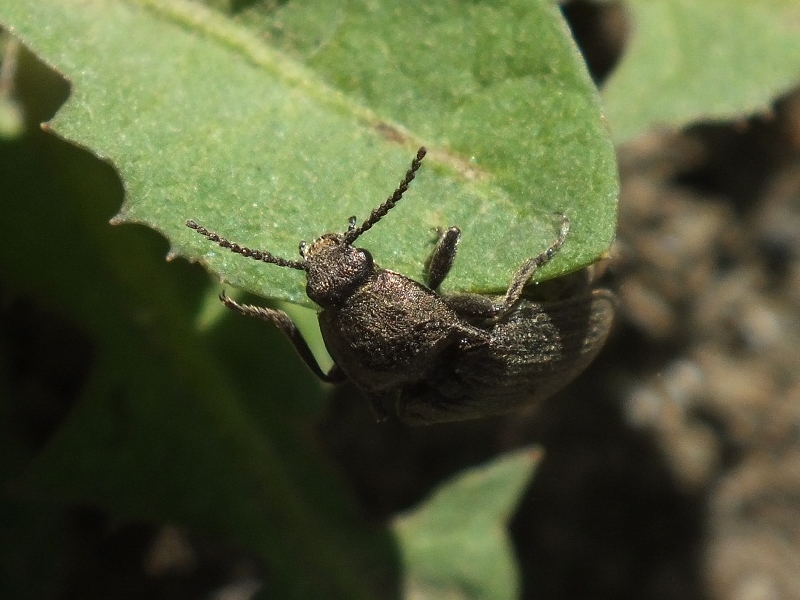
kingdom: Animalia
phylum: Arthropoda
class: Insecta
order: Coleoptera
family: Elateridae
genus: Selatosomus
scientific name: Selatosomus latus
